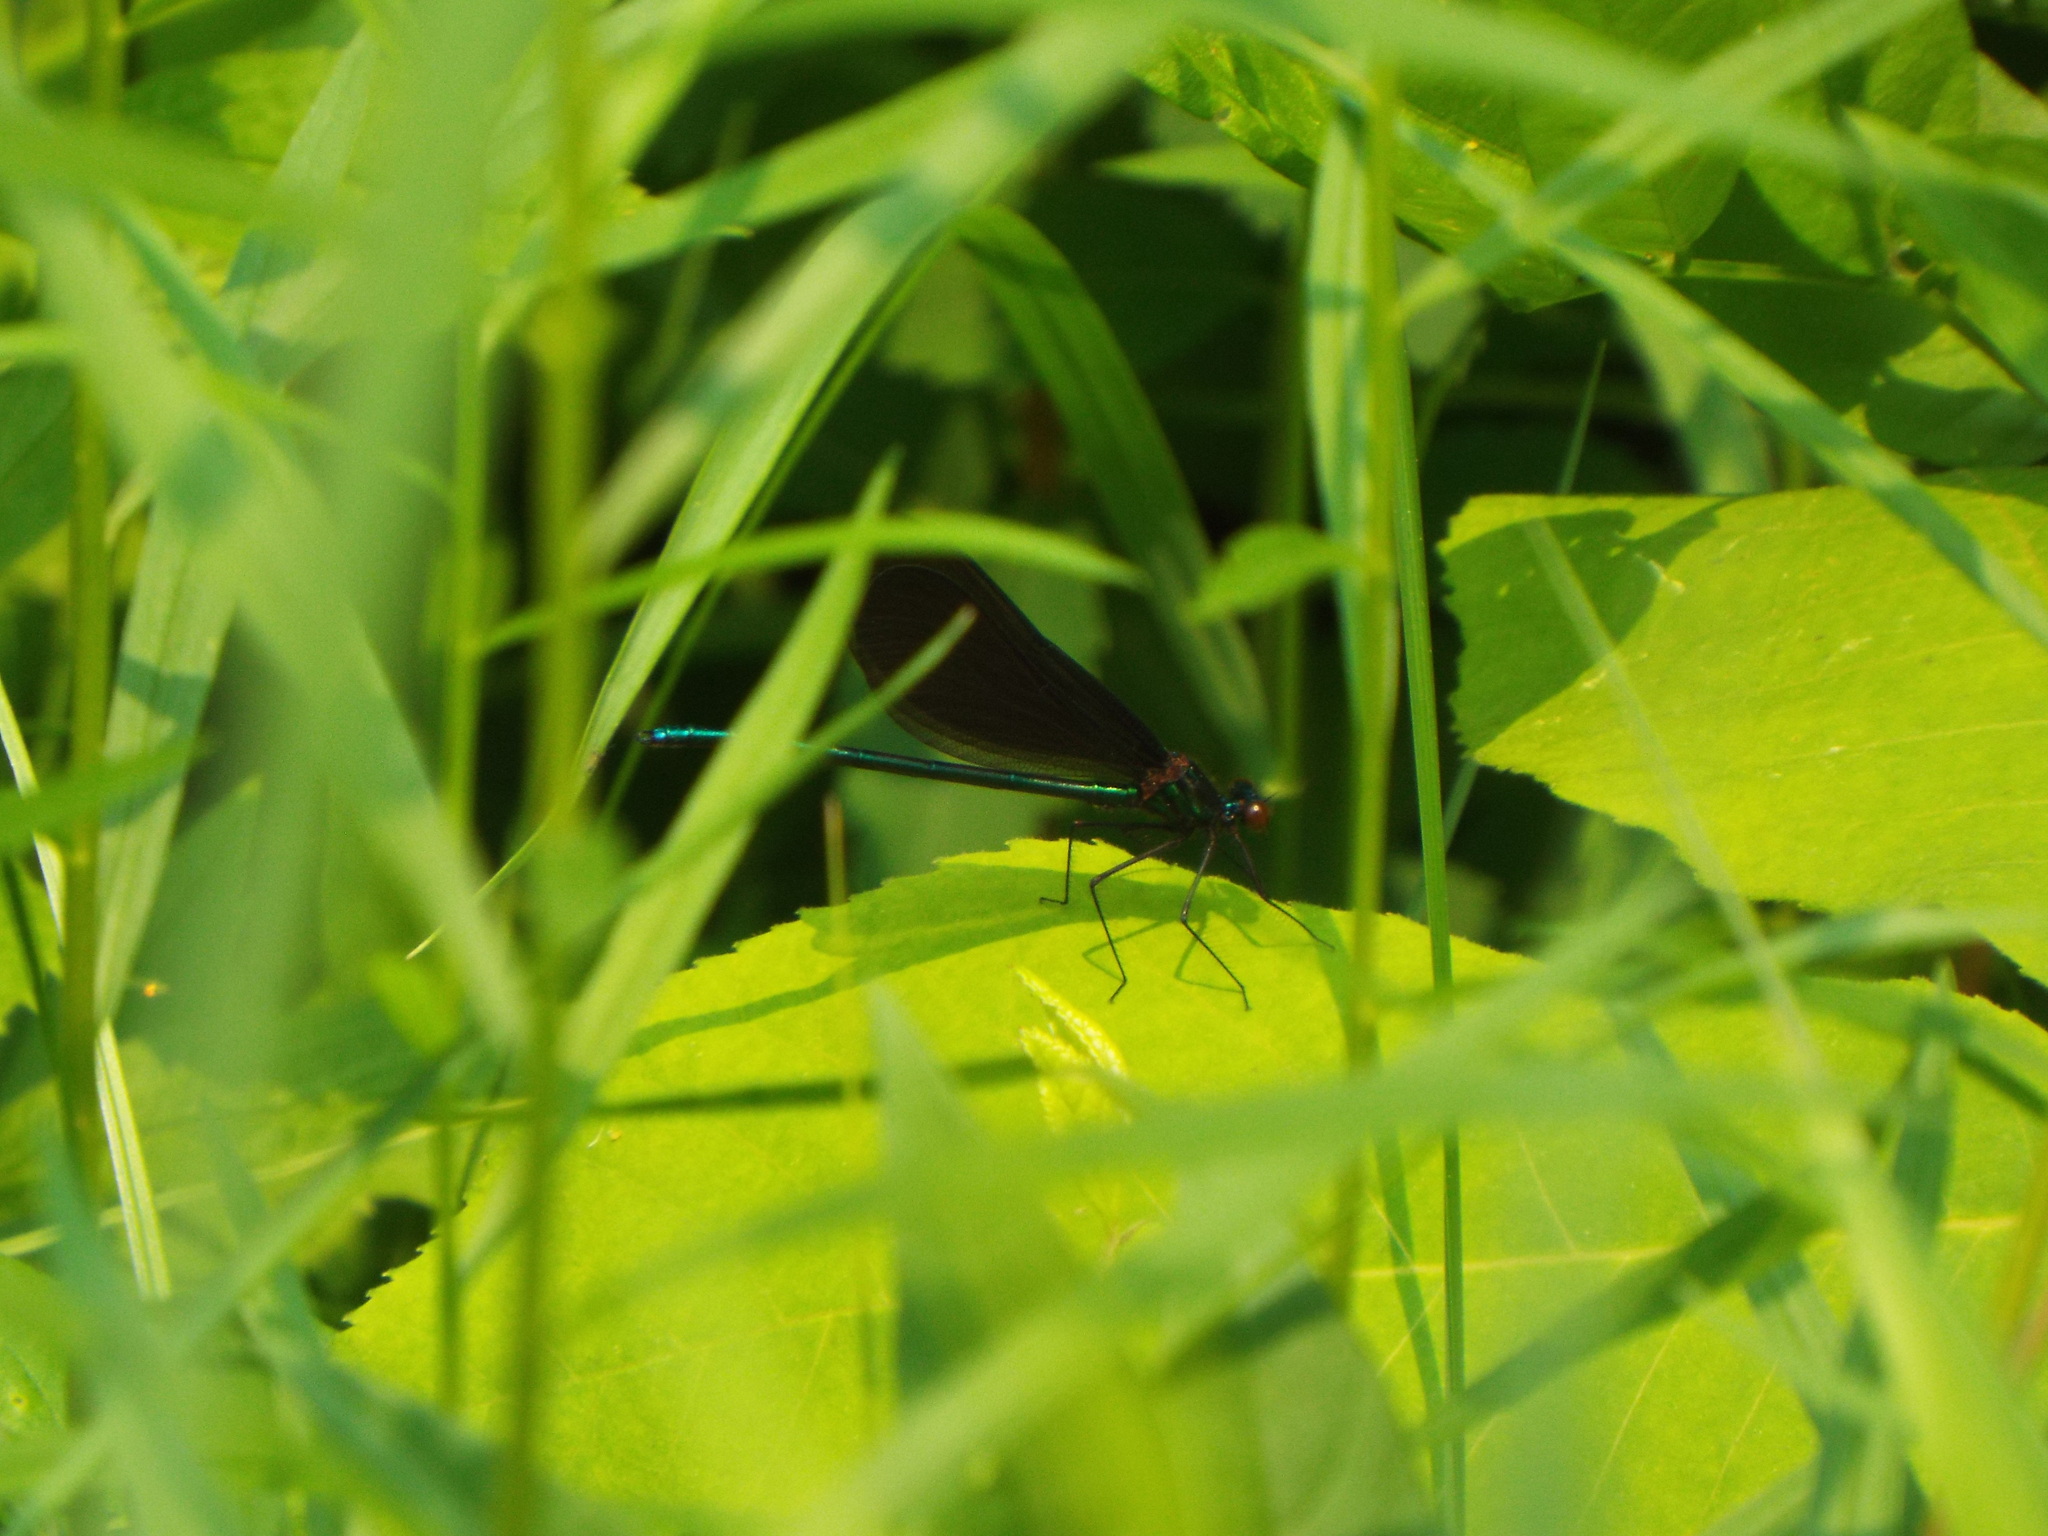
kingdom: Animalia
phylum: Arthropoda
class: Insecta
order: Odonata
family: Calopterygidae
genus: Calopteryx
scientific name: Calopteryx maculata
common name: Ebony jewelwing
